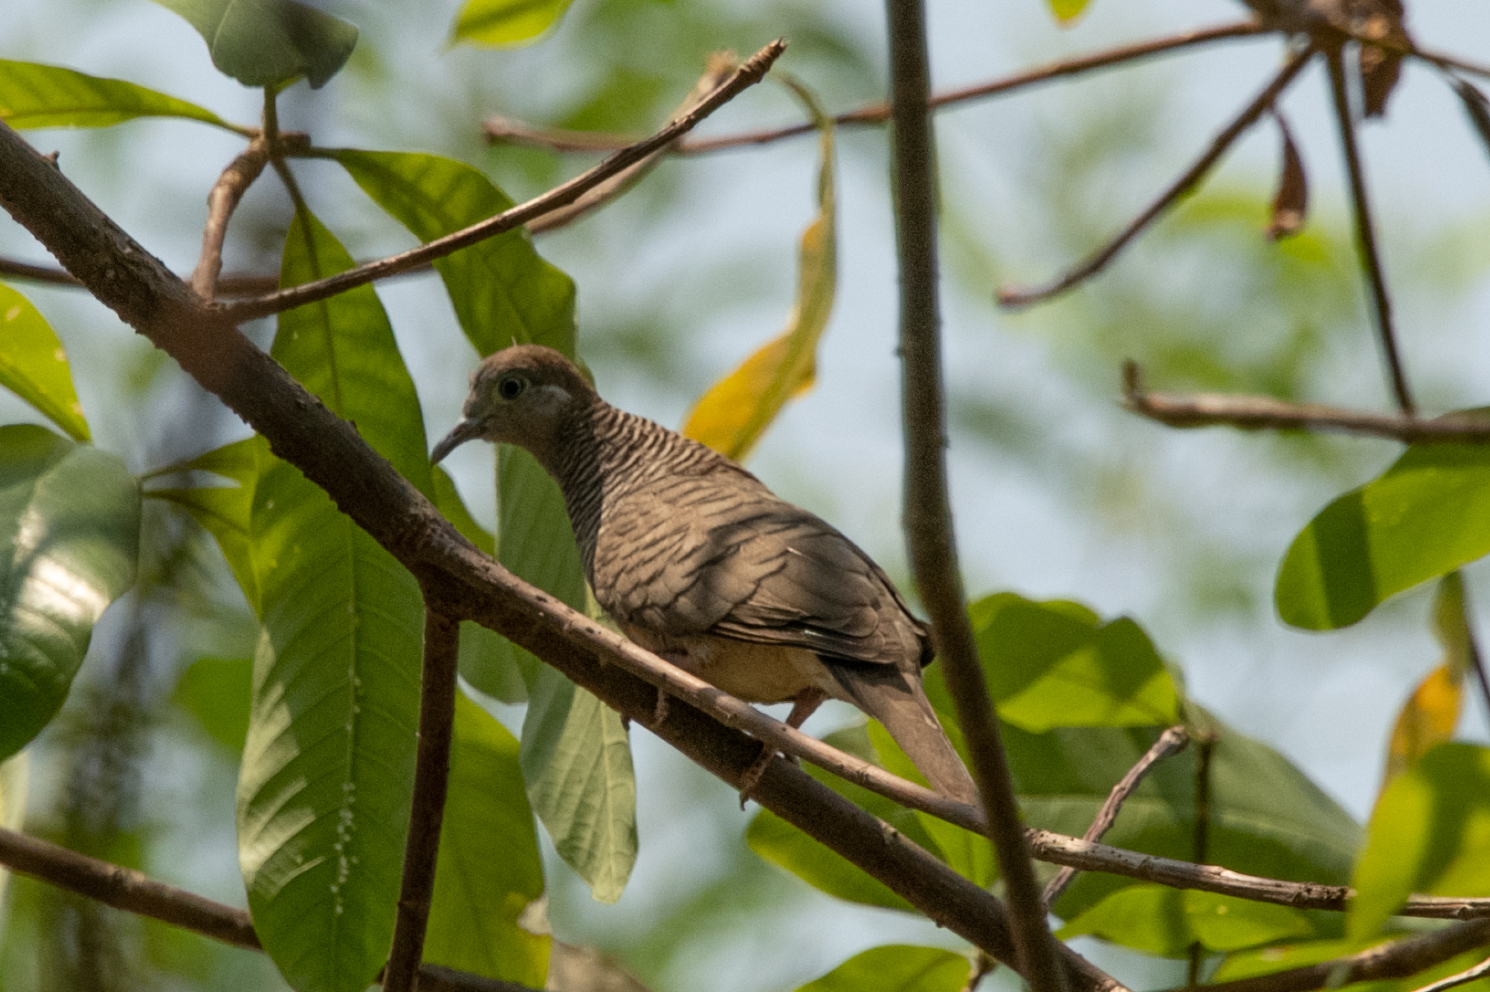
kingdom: Animalia
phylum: Chordata
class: Aves
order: Columbiformes
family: Columbidae
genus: Geopelia
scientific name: Geopelia striata
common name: Zebra dove
